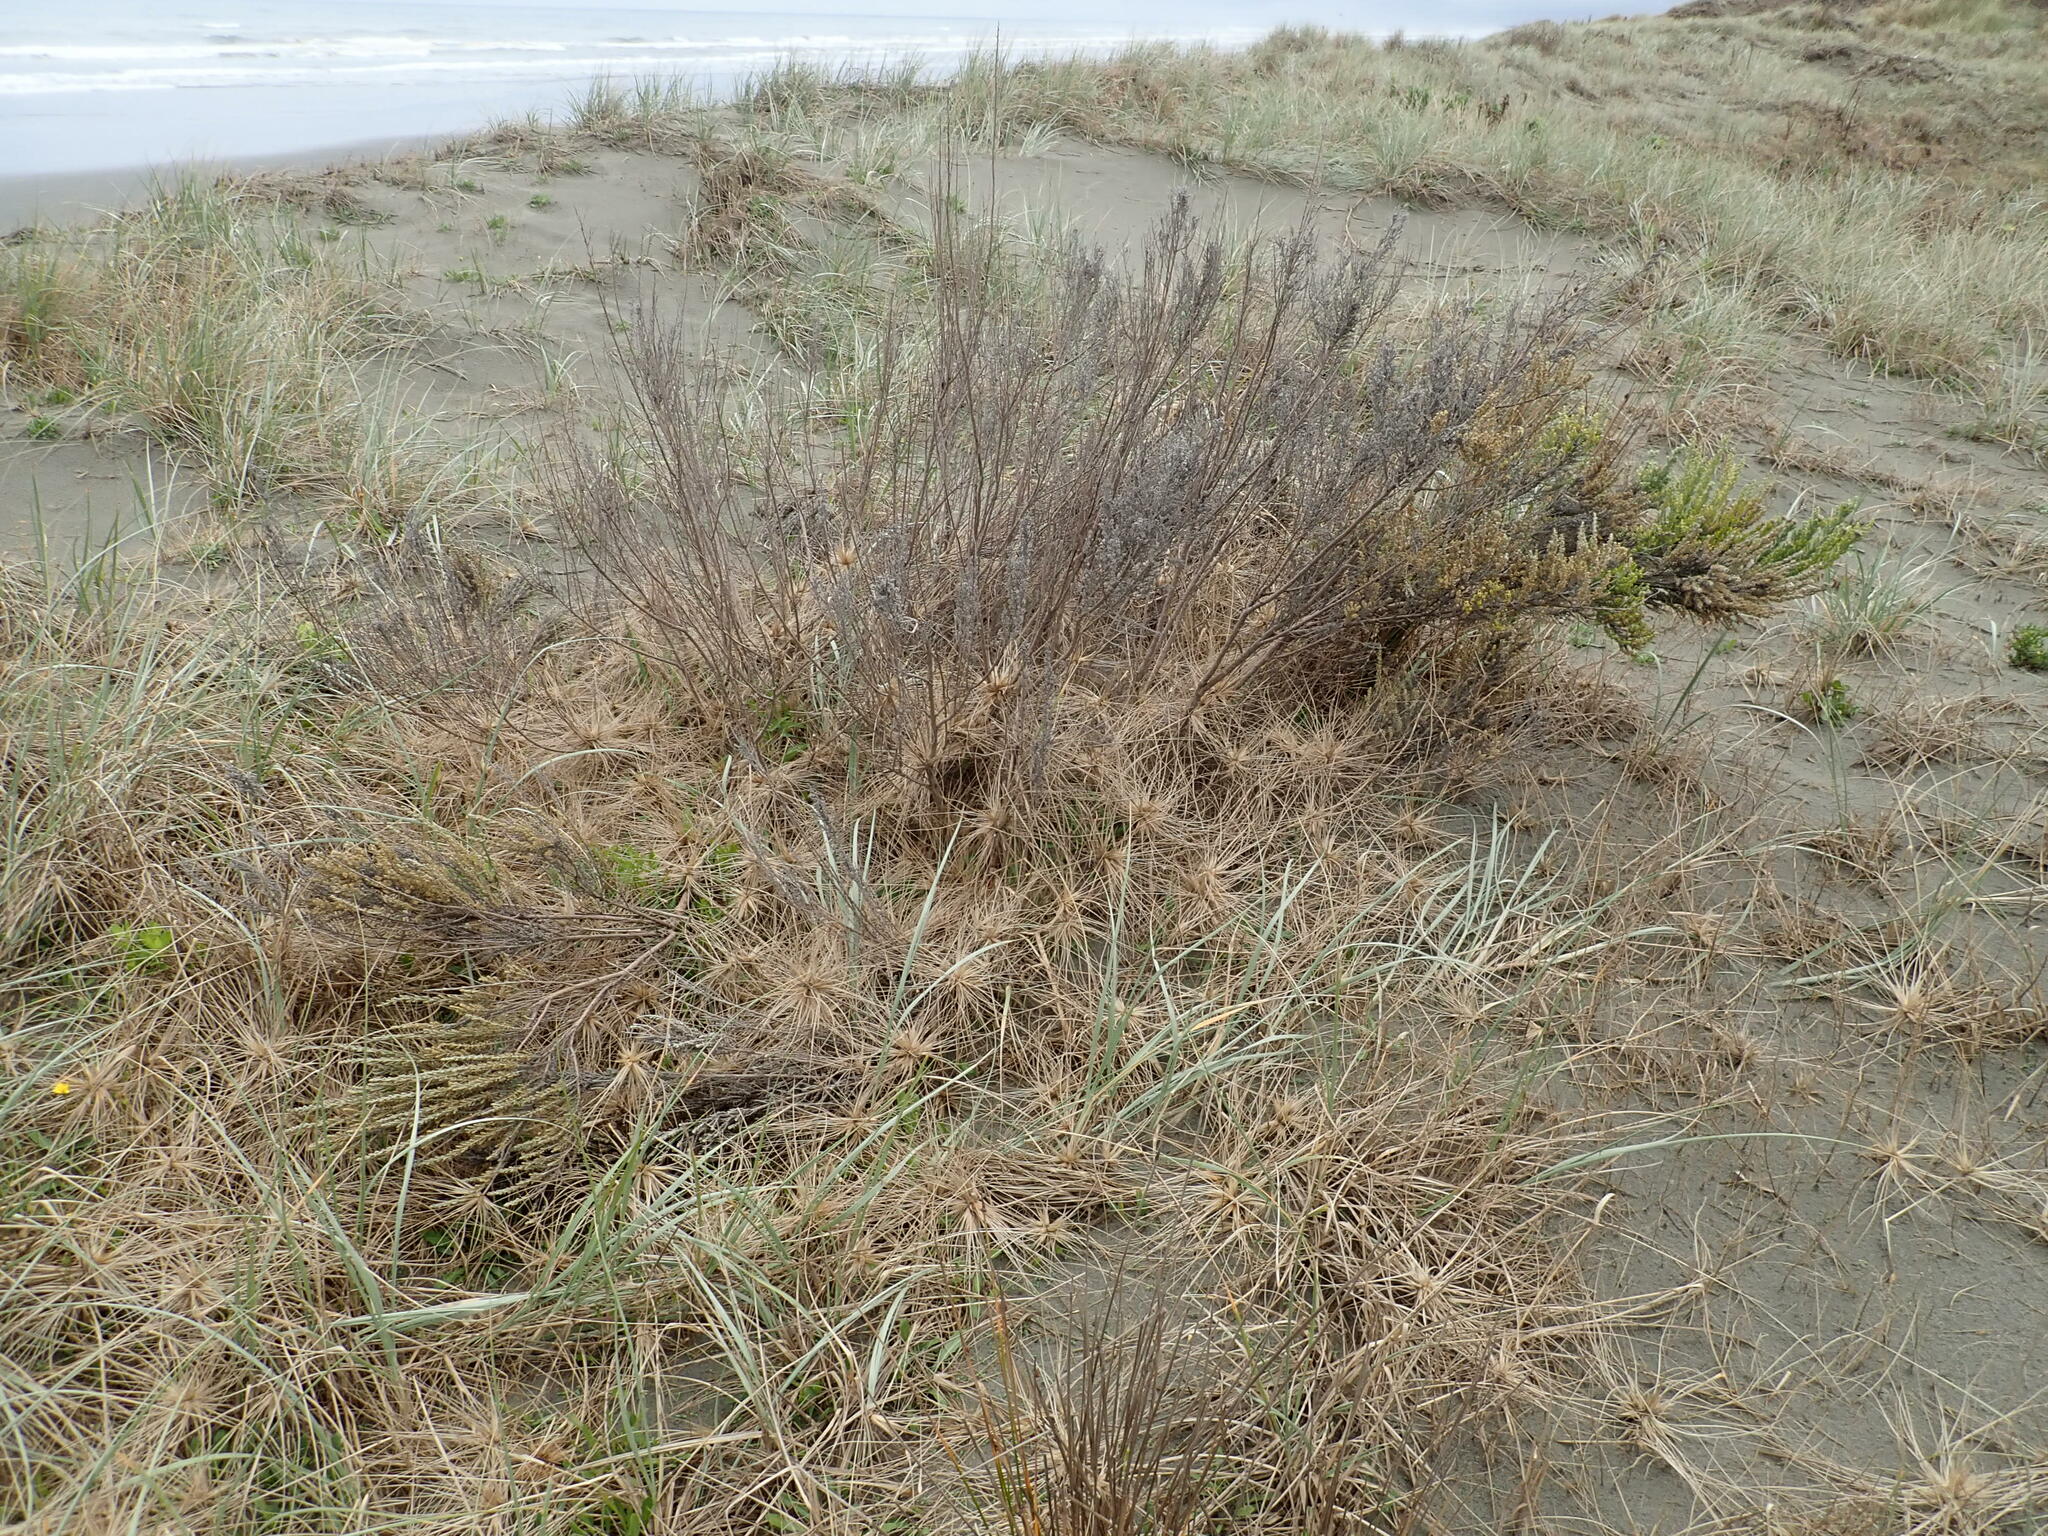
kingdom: Plantae
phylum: Tracheophyta
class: Magnoliopsida
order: Asterales
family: Asteraceae
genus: Ozothamnus
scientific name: Ozothamnus leptophyllus
